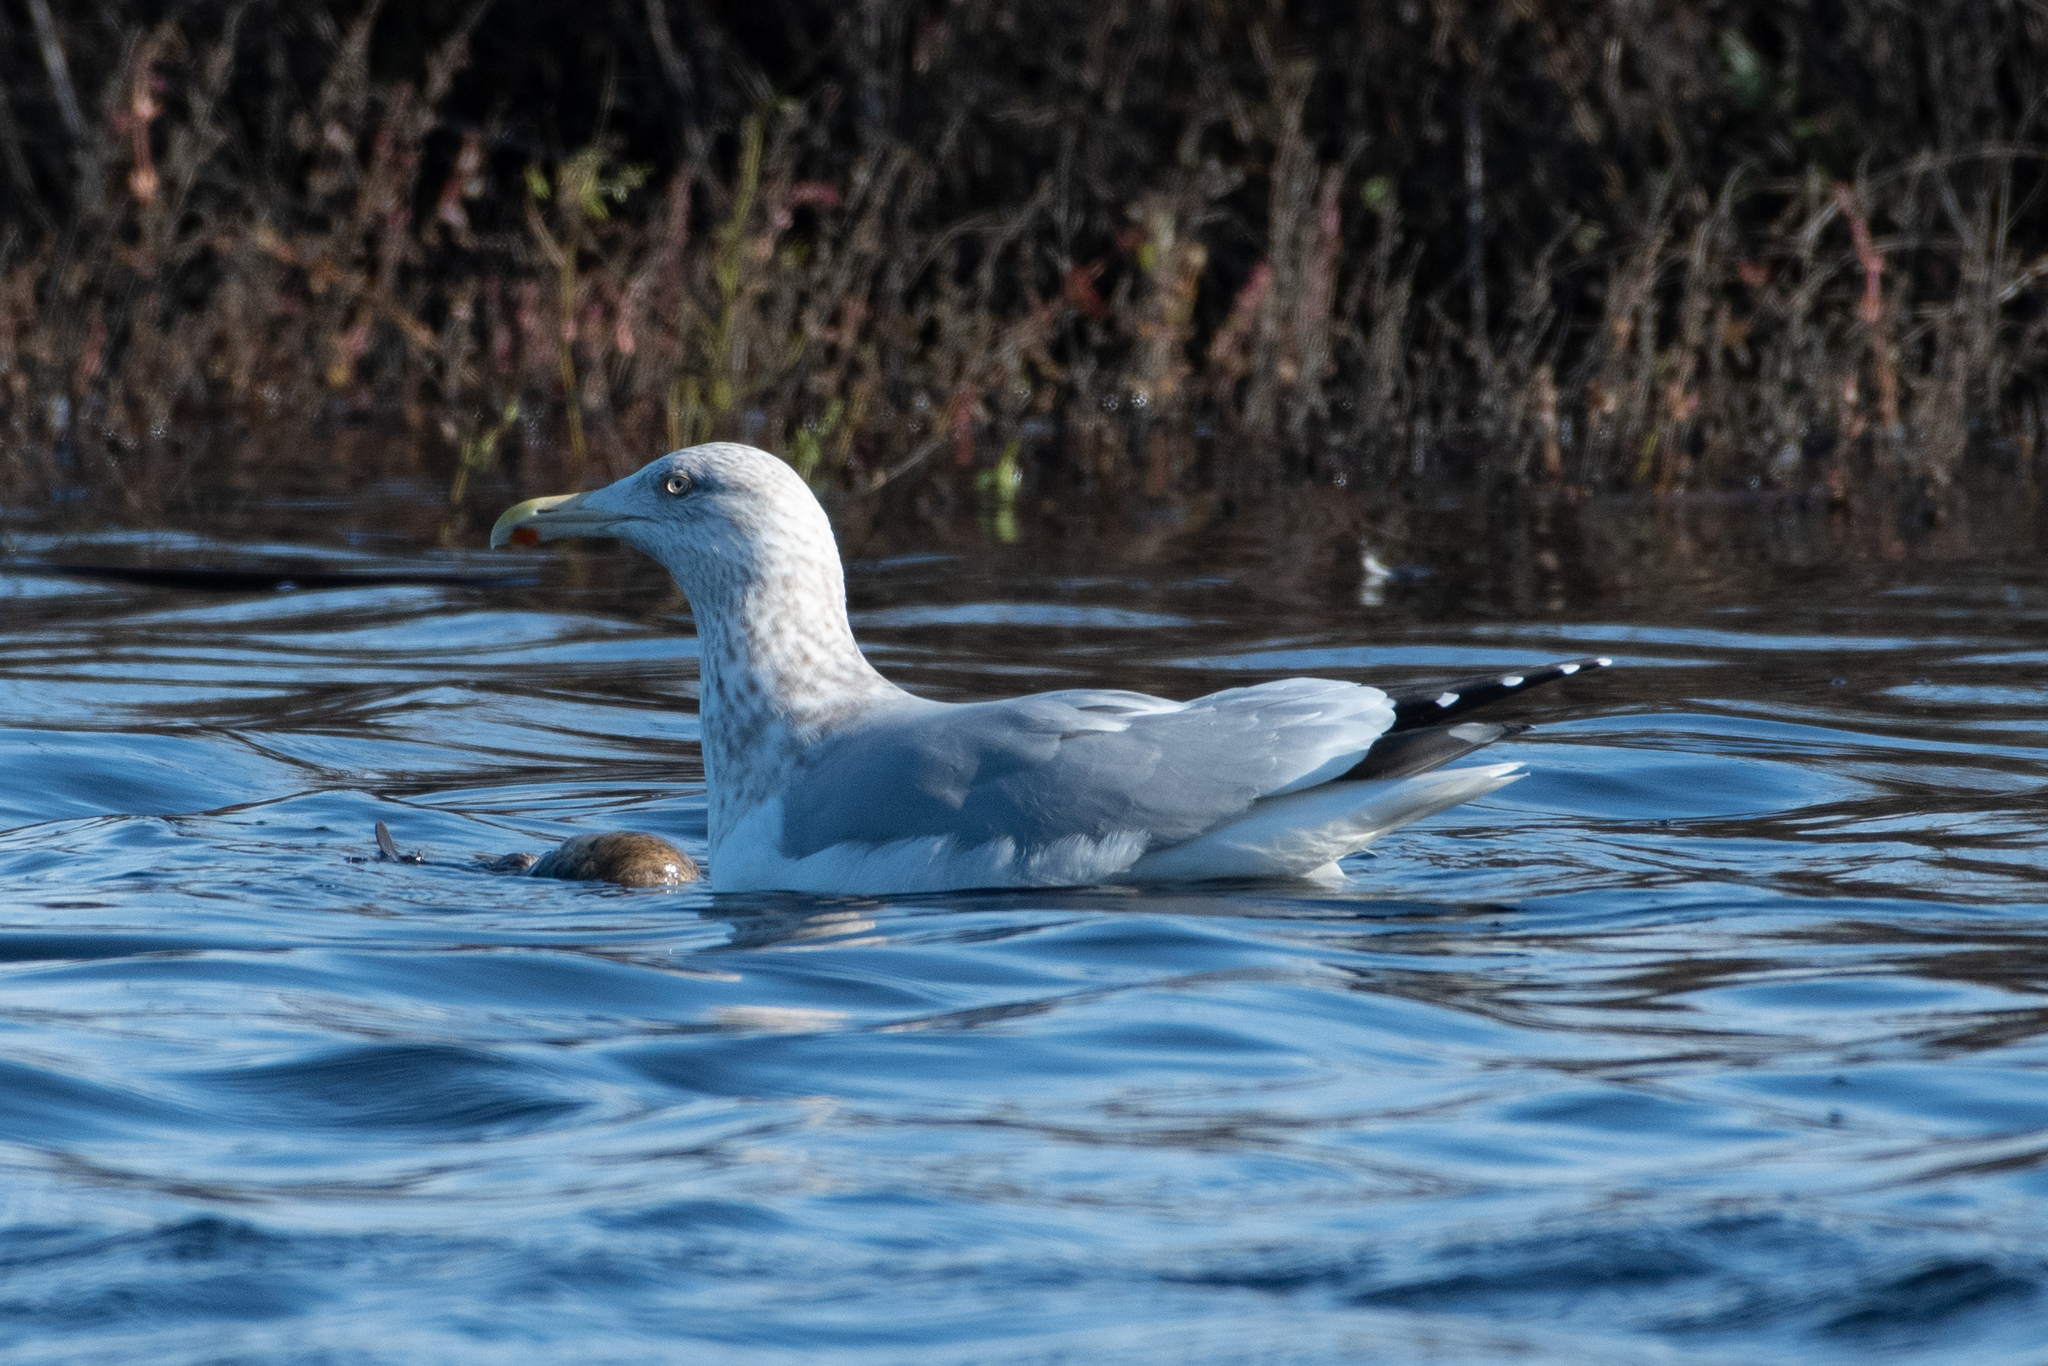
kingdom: Animalia
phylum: Chordata
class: Aves
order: Charadriiformes
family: Laridae
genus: Larus
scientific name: Larus argentatus
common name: Herring gull
